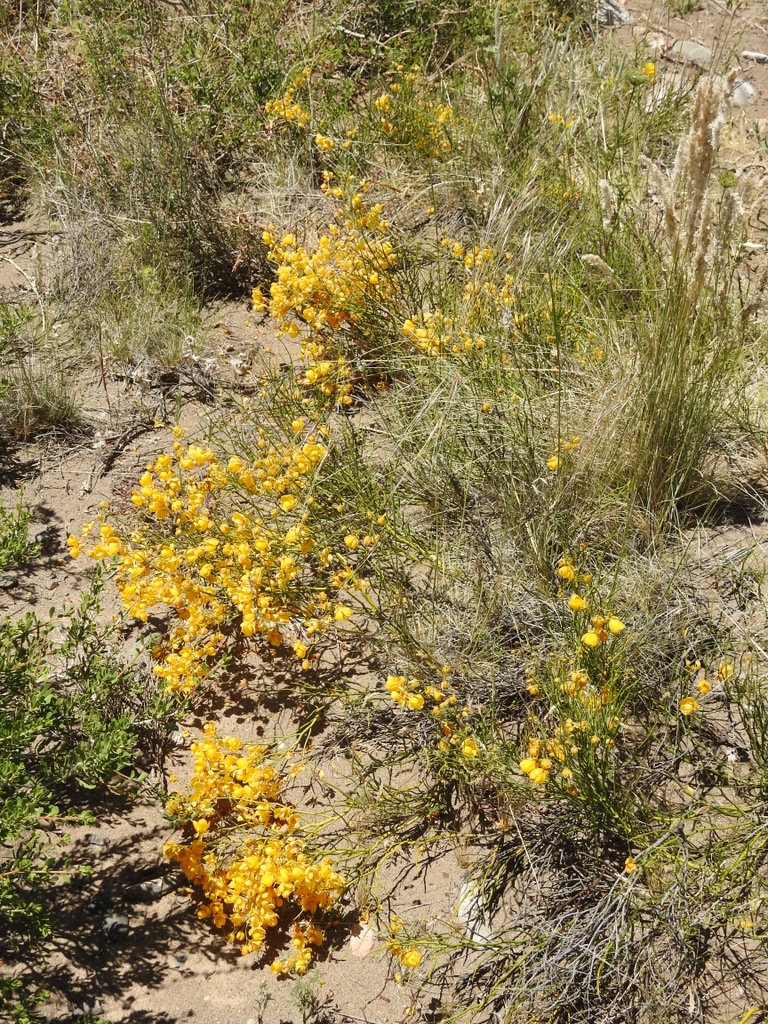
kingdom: Plantae
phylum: Tracheophyta
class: Magnoliopsida
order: Fabales
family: Fabaceae
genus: Senna
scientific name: Senna aphylla
